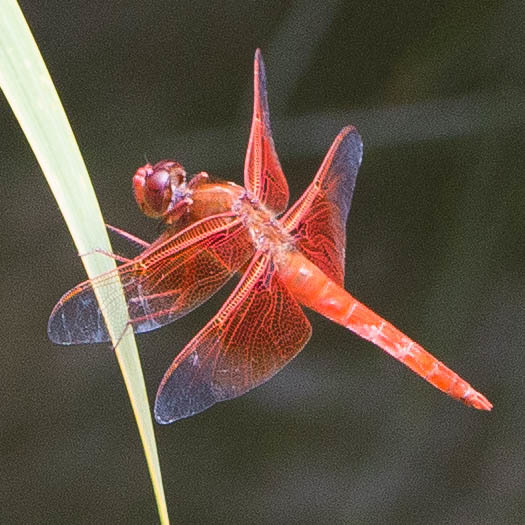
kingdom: Animalia
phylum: Arthropoda
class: Insecta
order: Odonata
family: Libellulidae
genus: Libellula
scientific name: Libellula saturata
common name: Flame skimmer
